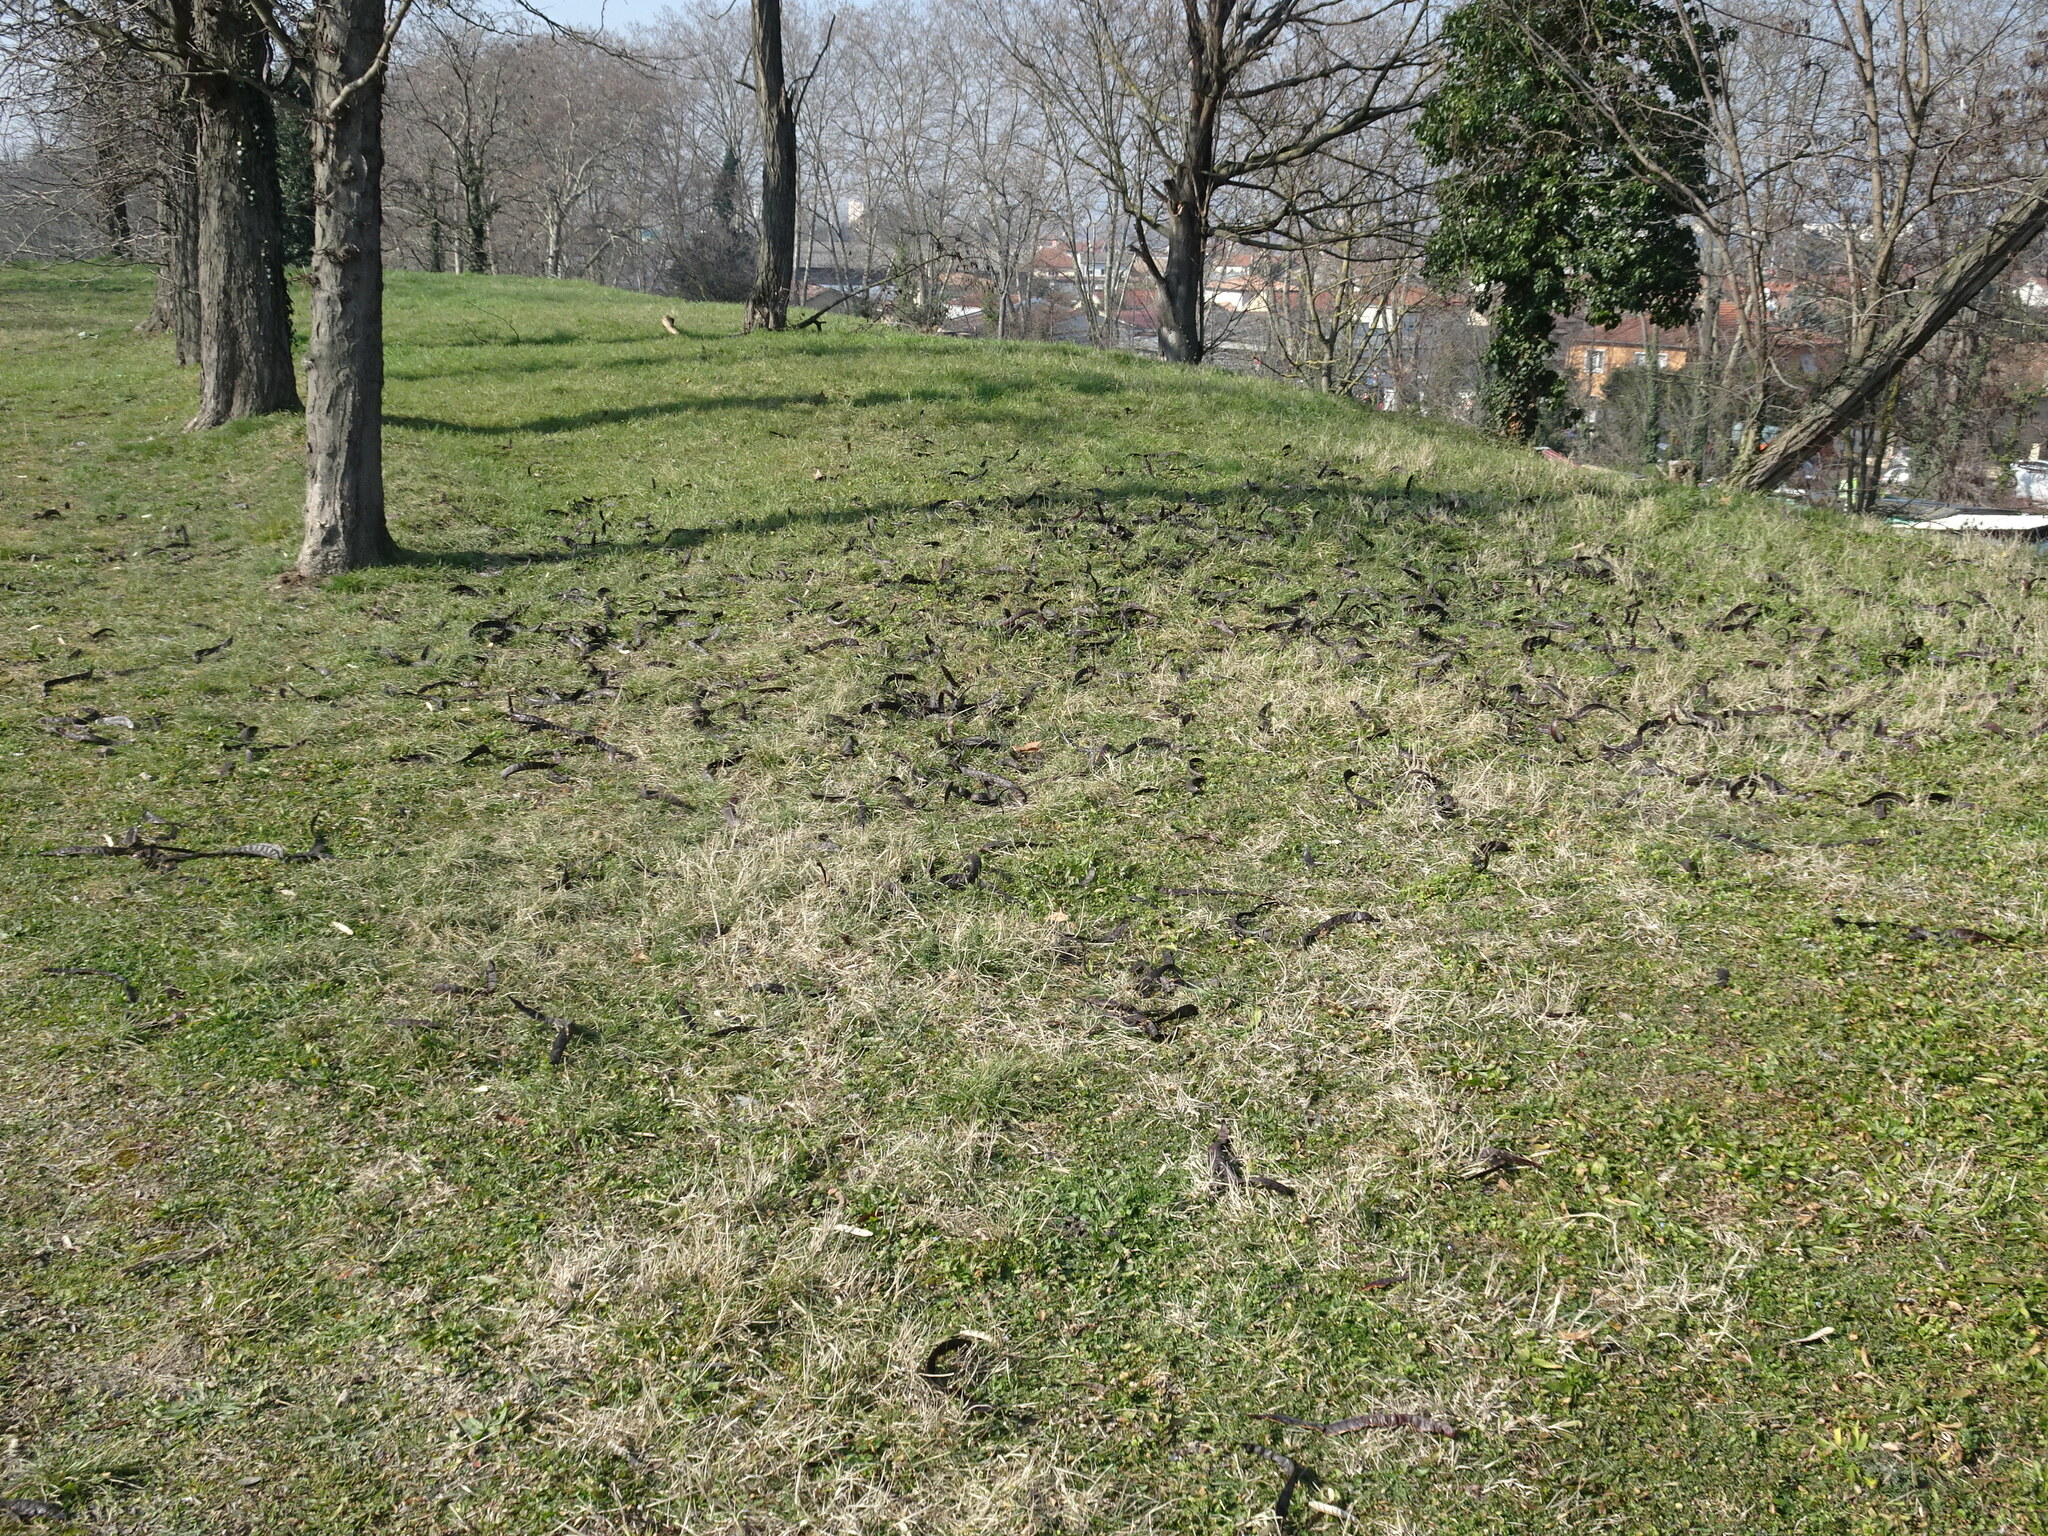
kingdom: Plantae
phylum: Tracheophyta
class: Magnoliopsida
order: Fabales
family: Fabaceae
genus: Gleditsia
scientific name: Gleditsia triacanthos
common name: Common honeylocust
